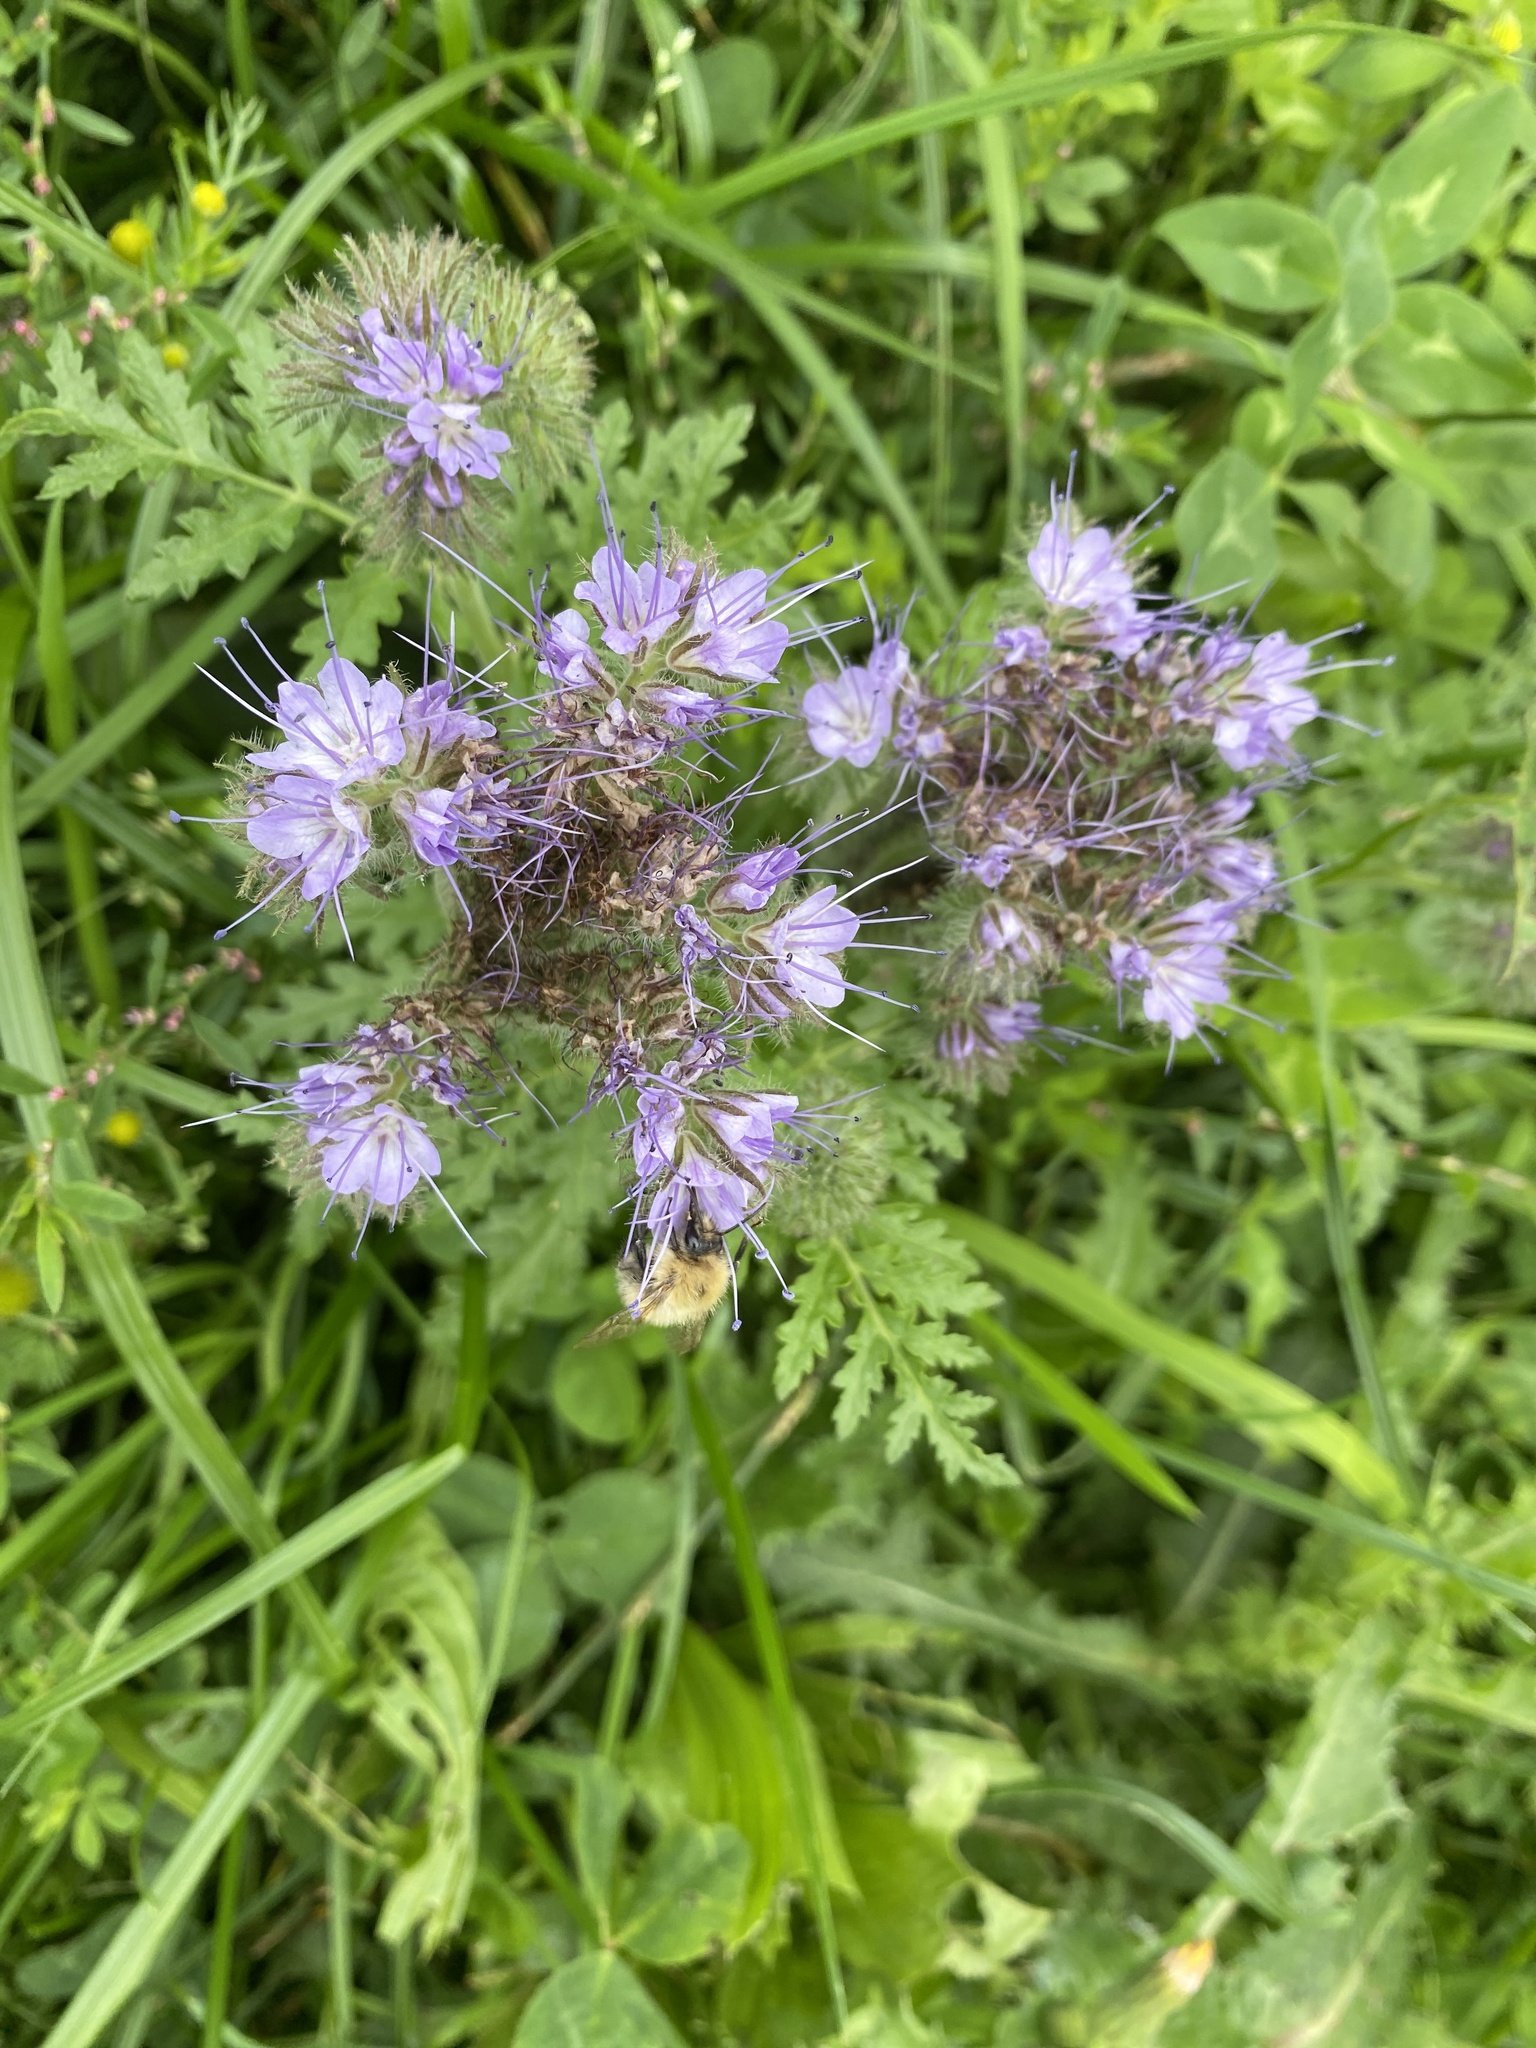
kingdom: Plantae
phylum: Tracheophyta
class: Magnoliopsida
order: Boraginales
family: Hydrophyllaceae
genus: Phacelia
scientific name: Phacelia tanacetifolia
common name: Phacelia
